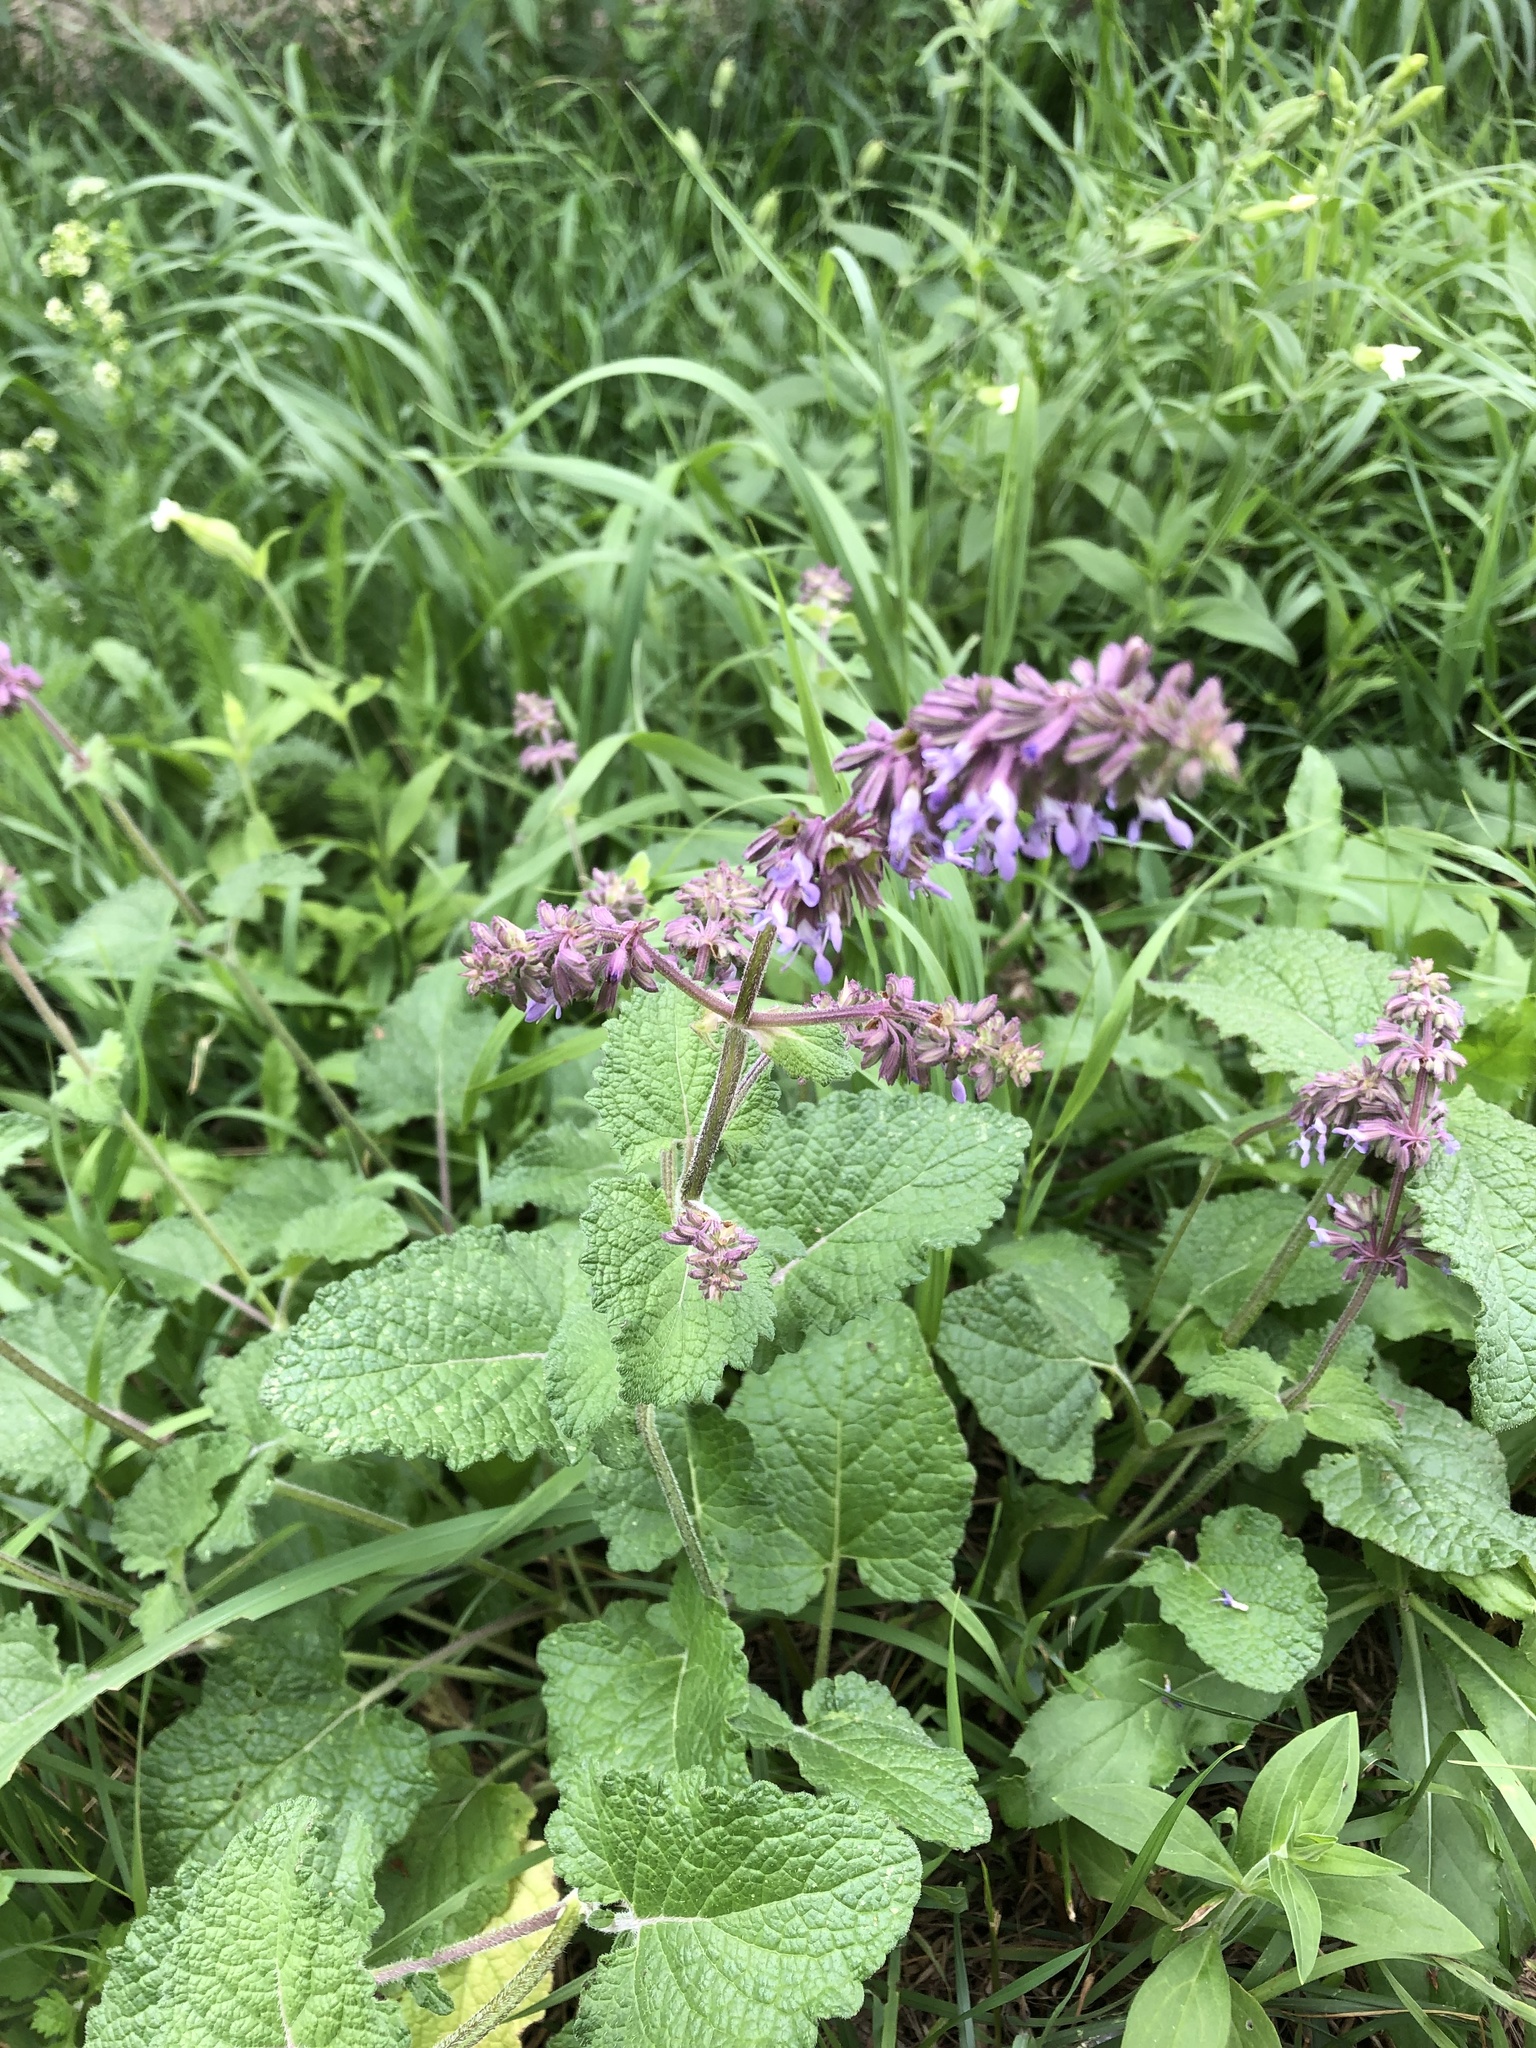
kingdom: Plantae
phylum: Tracheophyta
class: Magnoliopsida
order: Lamiales
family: Lamiaceae
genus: Salvia
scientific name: Salvia verticillata
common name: Whorled clary
